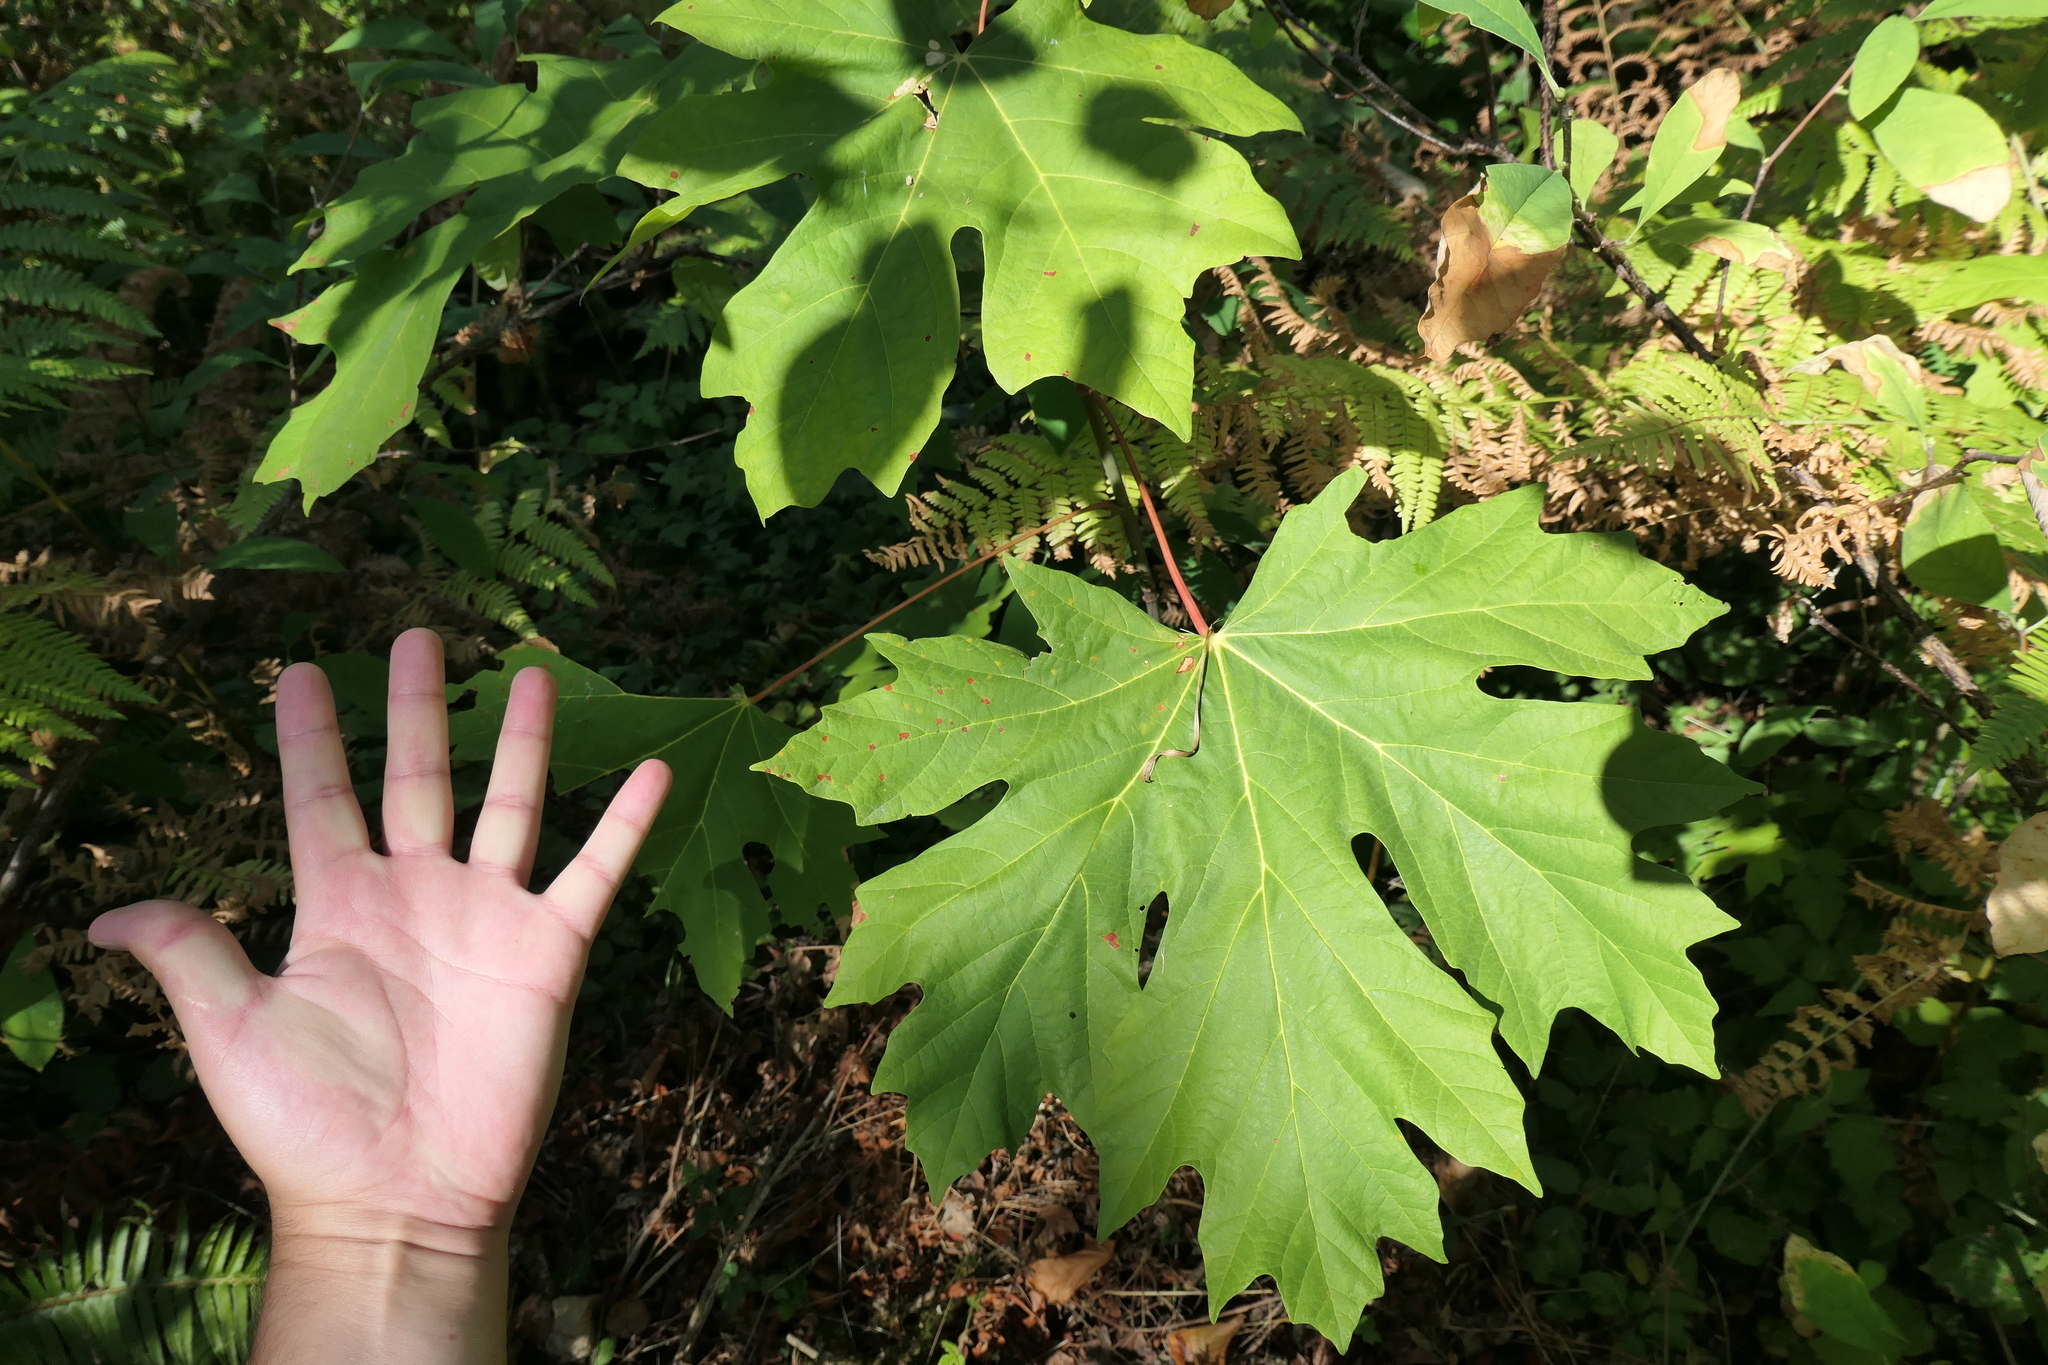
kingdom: Plantae
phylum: Tracheophyta
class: Magnoliopsida
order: Sapindales
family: Sapindaceae
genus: Acer
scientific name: Acer macrophyllum
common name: Oregon maple
